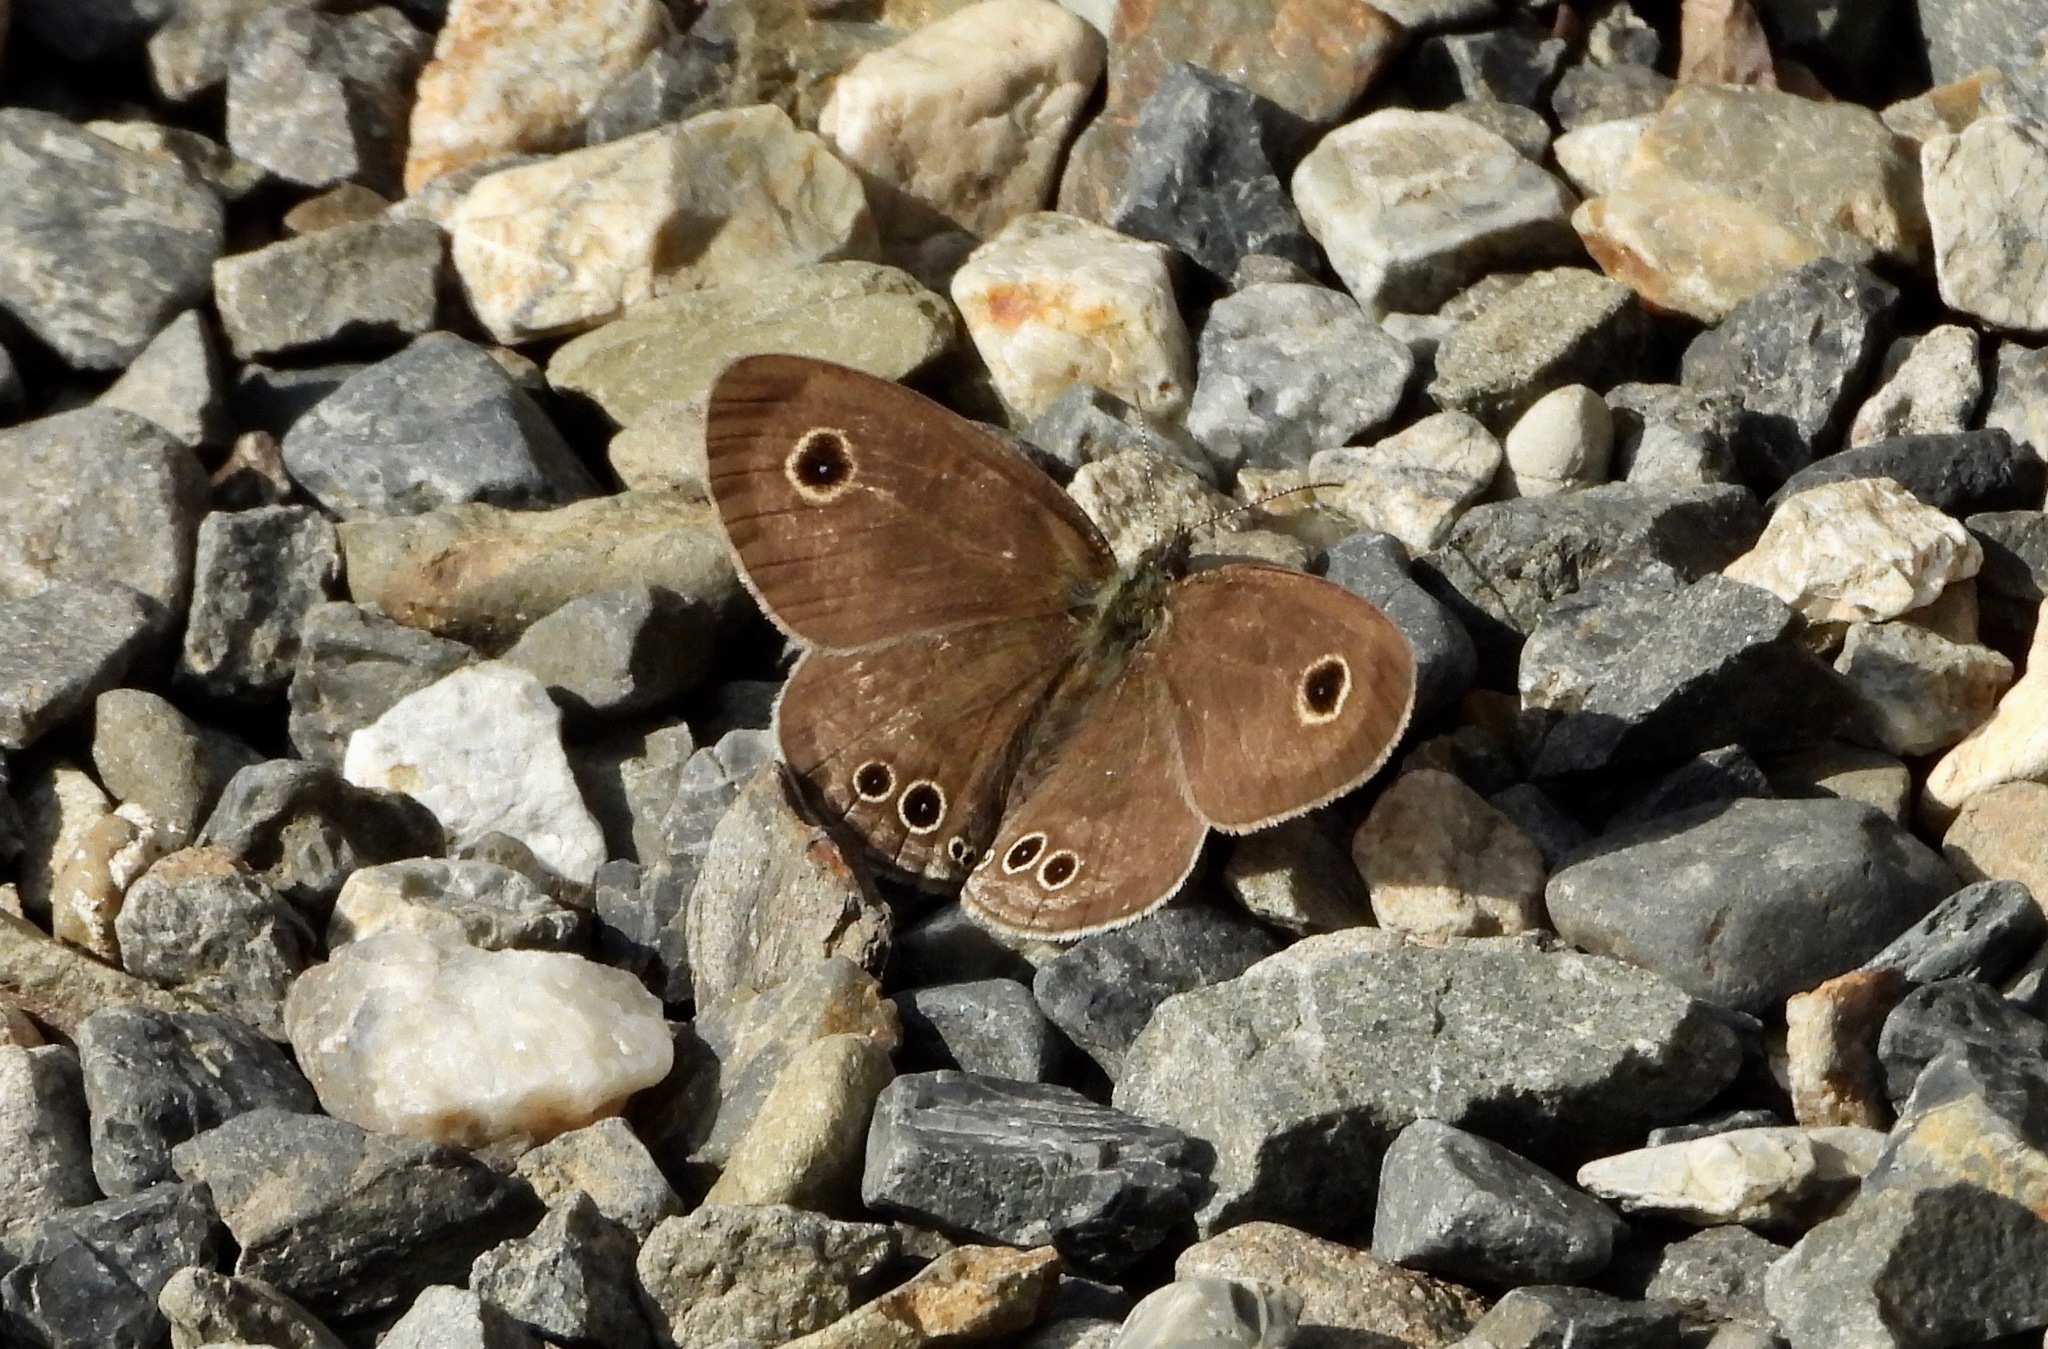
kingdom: Animalia
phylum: Arthropoda
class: Insecta
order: Lepidoptera
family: Nymphalidae
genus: Ypthima
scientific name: Ypthima argus
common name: Common fivering
